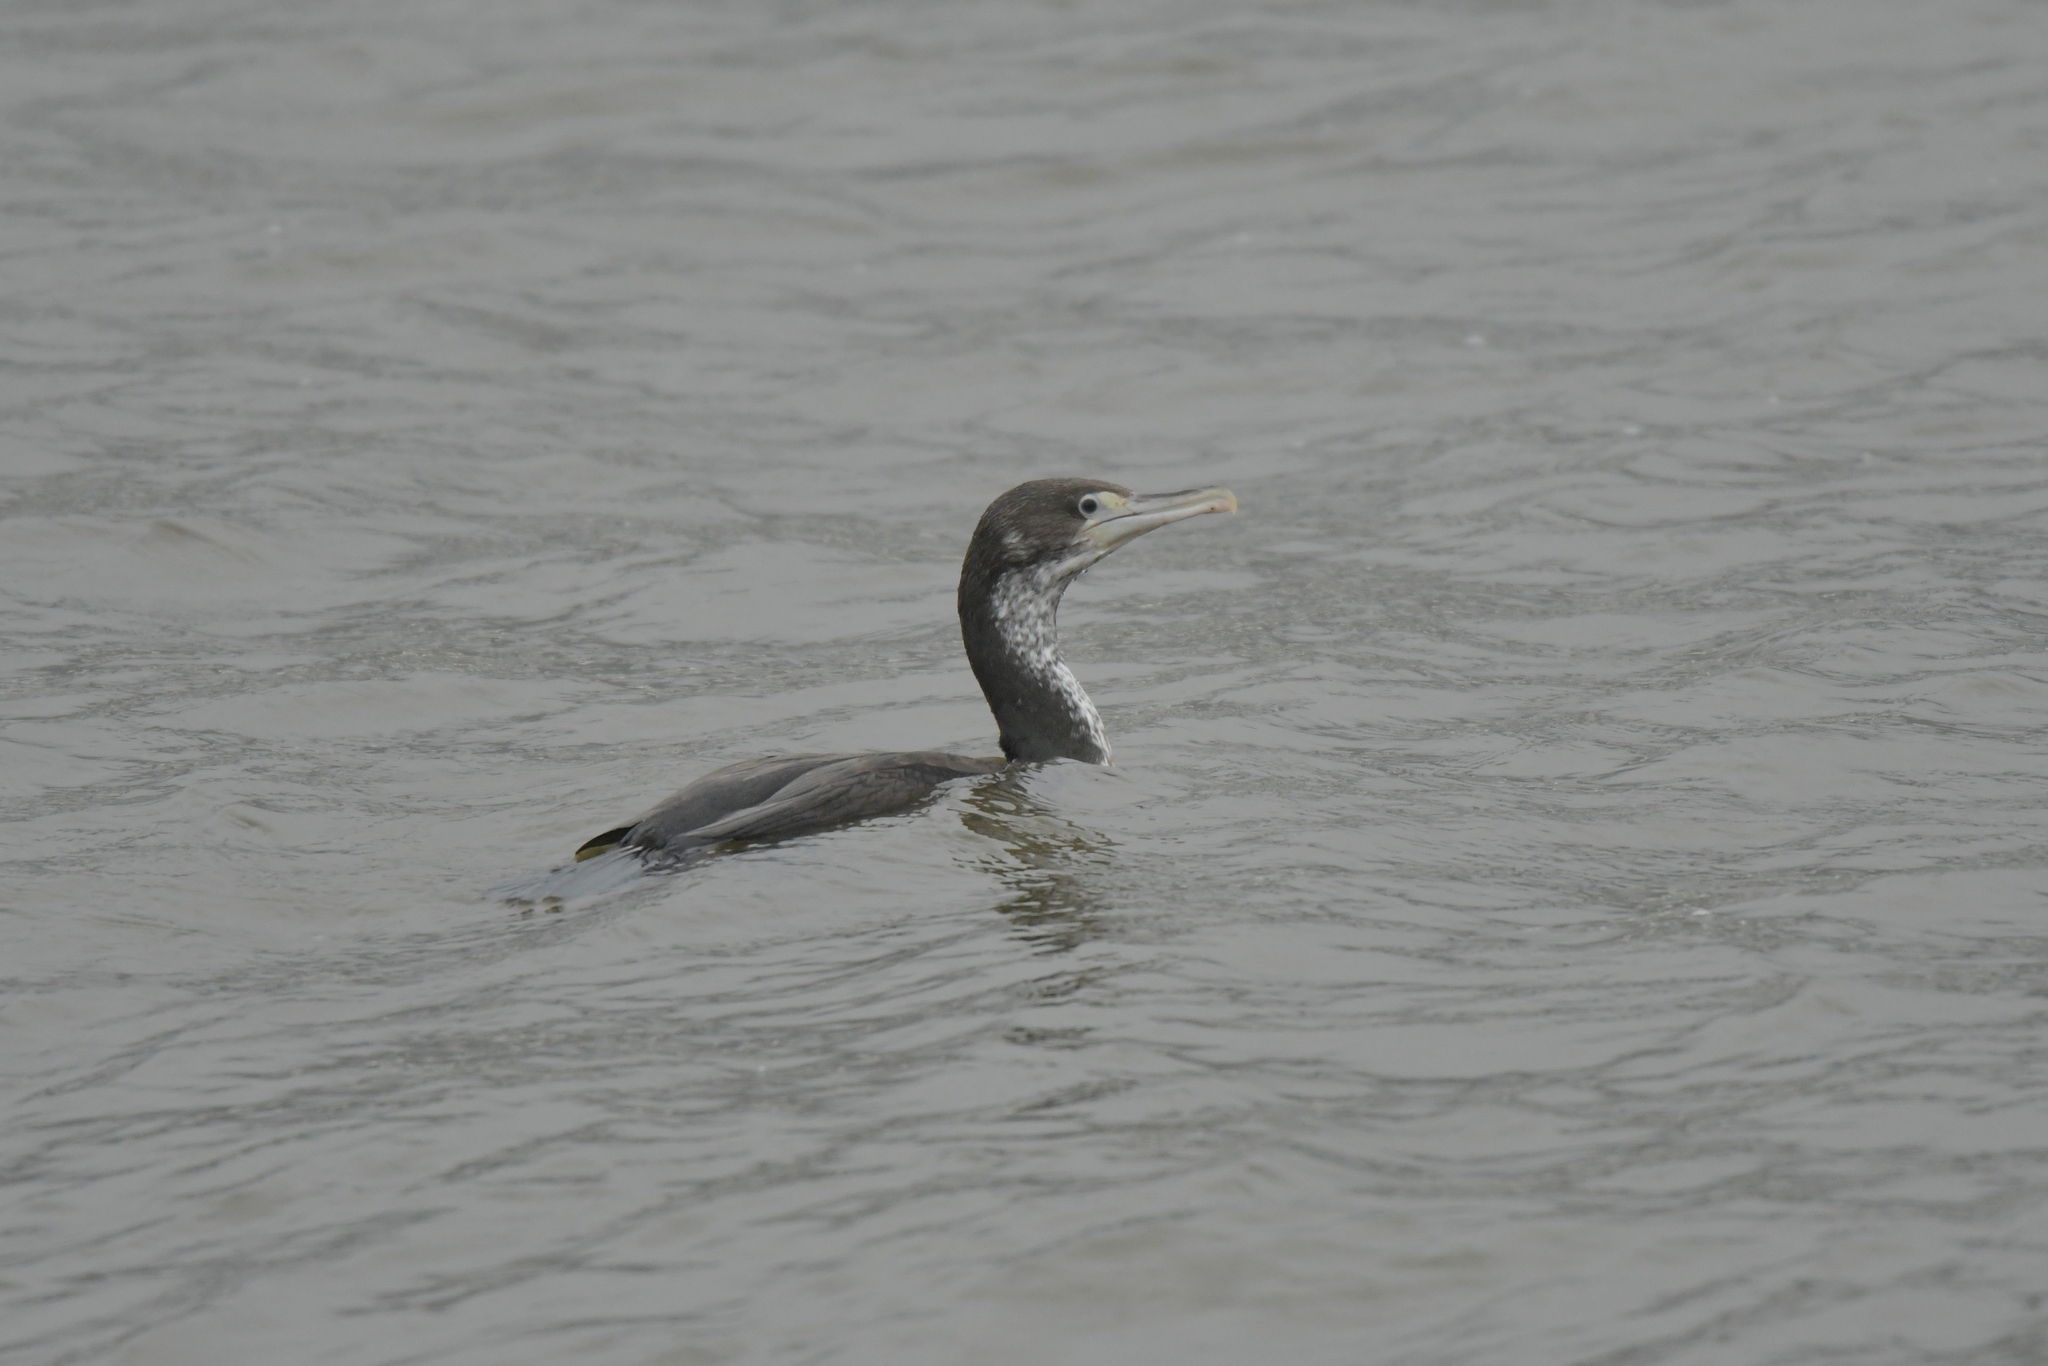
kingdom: Animalia
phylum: Chordata
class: Aves
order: Suliformes
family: Phalacrocoracidae
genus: Phalacrocorax
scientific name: Phalacrocorax varius
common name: Pied cormorant
